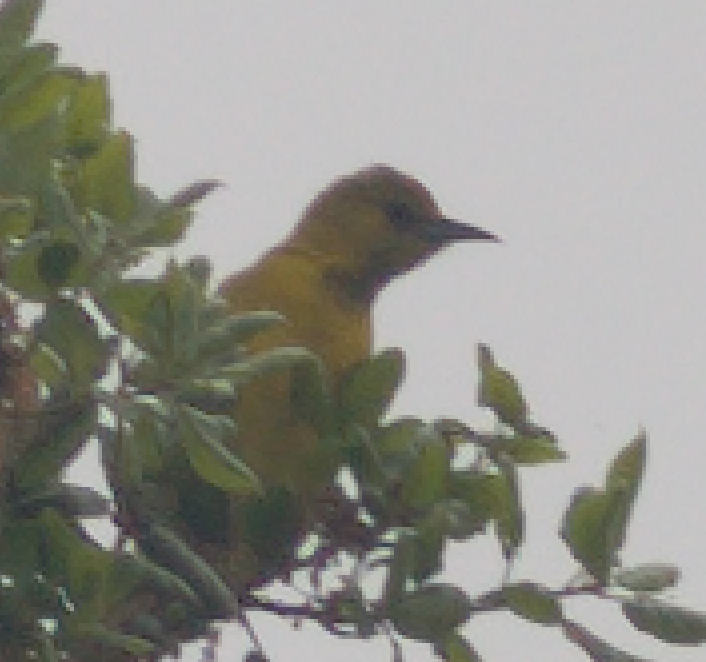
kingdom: Animalia
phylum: Chordata
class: Aves
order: Passeriformes
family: Icteridae
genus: Icterus
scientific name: Icterus cucullatus
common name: Hooded oriole
